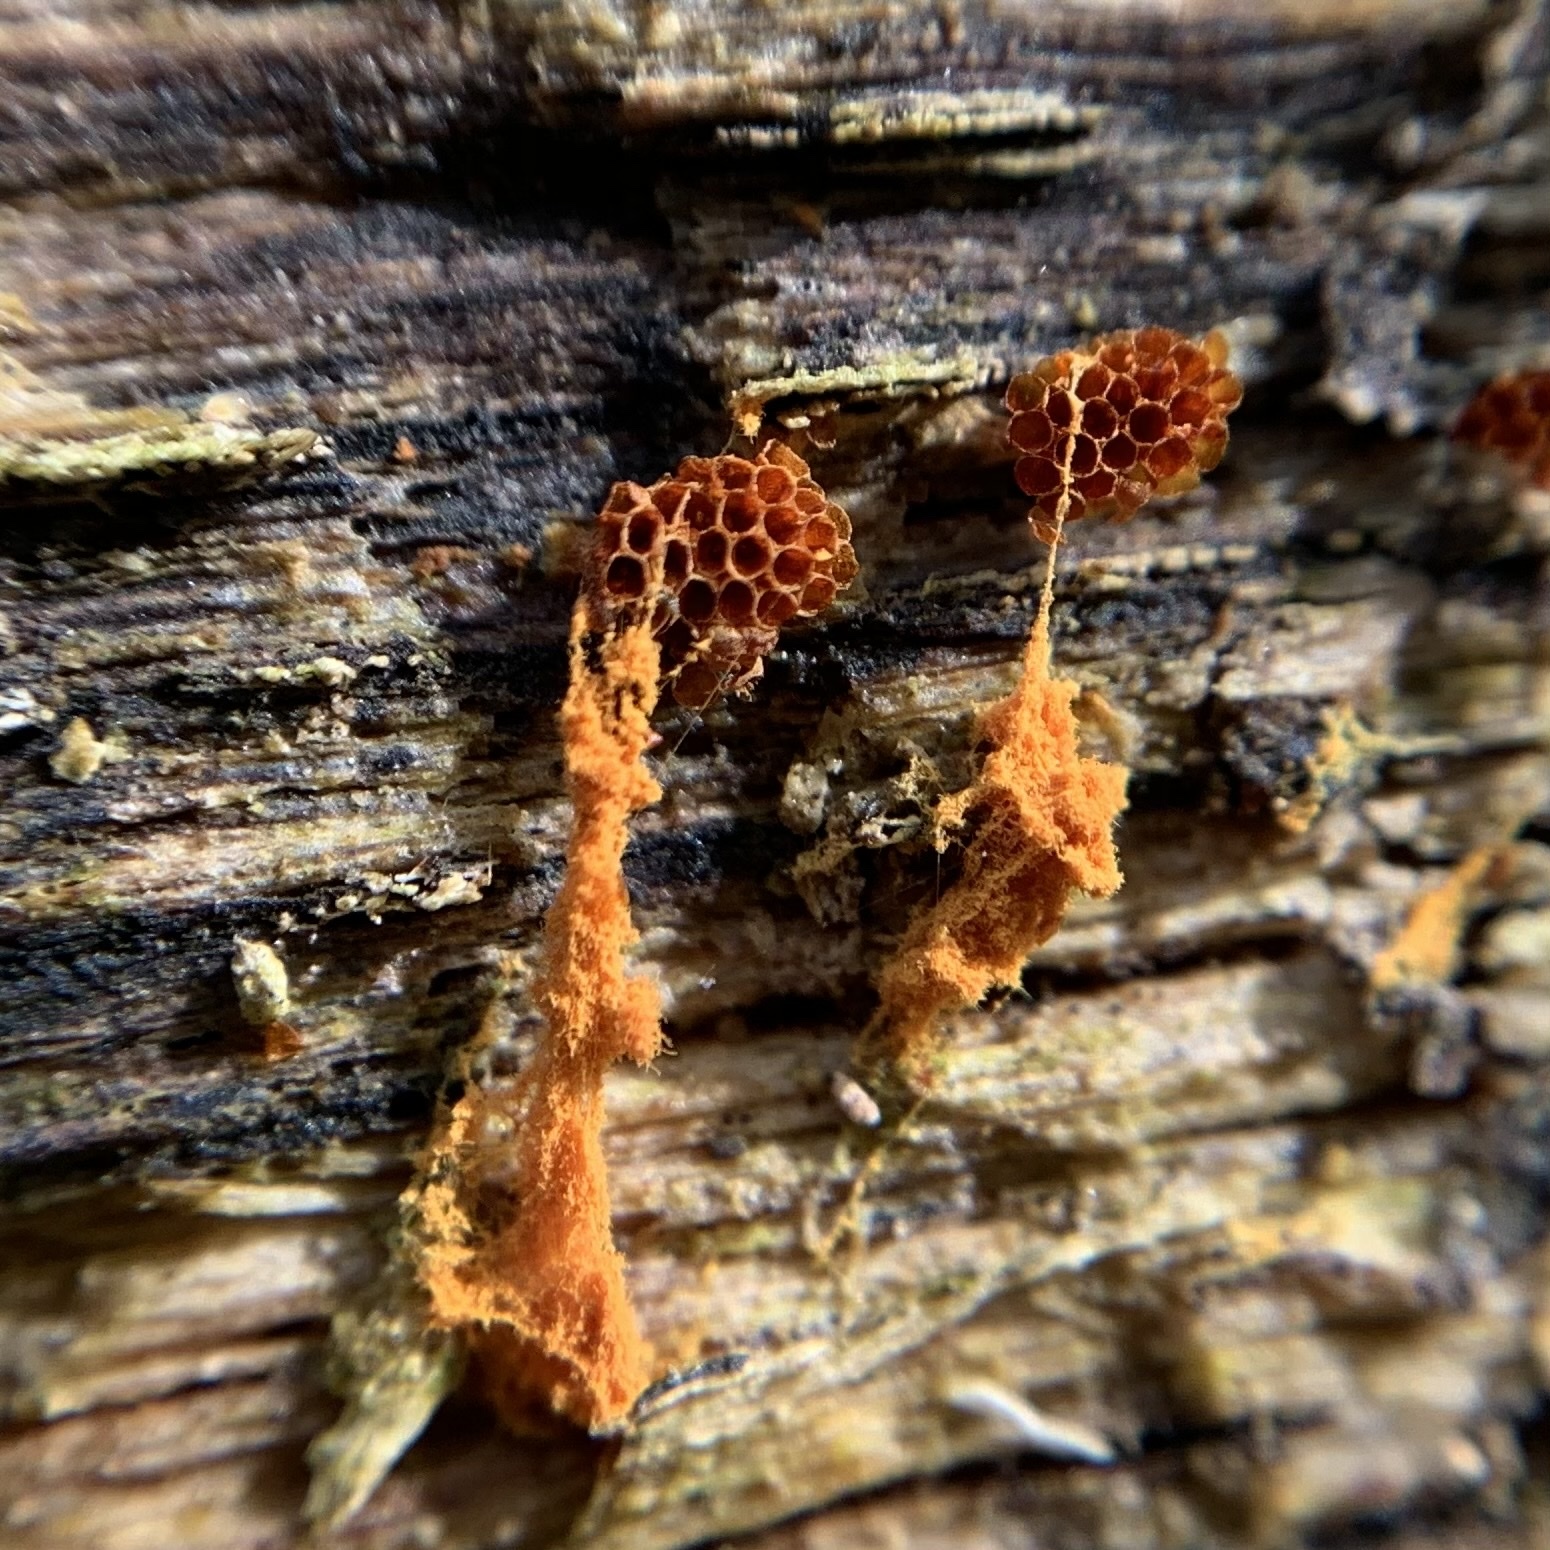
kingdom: Protozoa
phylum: Mycetozoa
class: Myxomycetes
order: Trichiales
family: Trichiaceae
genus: Metatrichia
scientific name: Metatrichia vesparia
